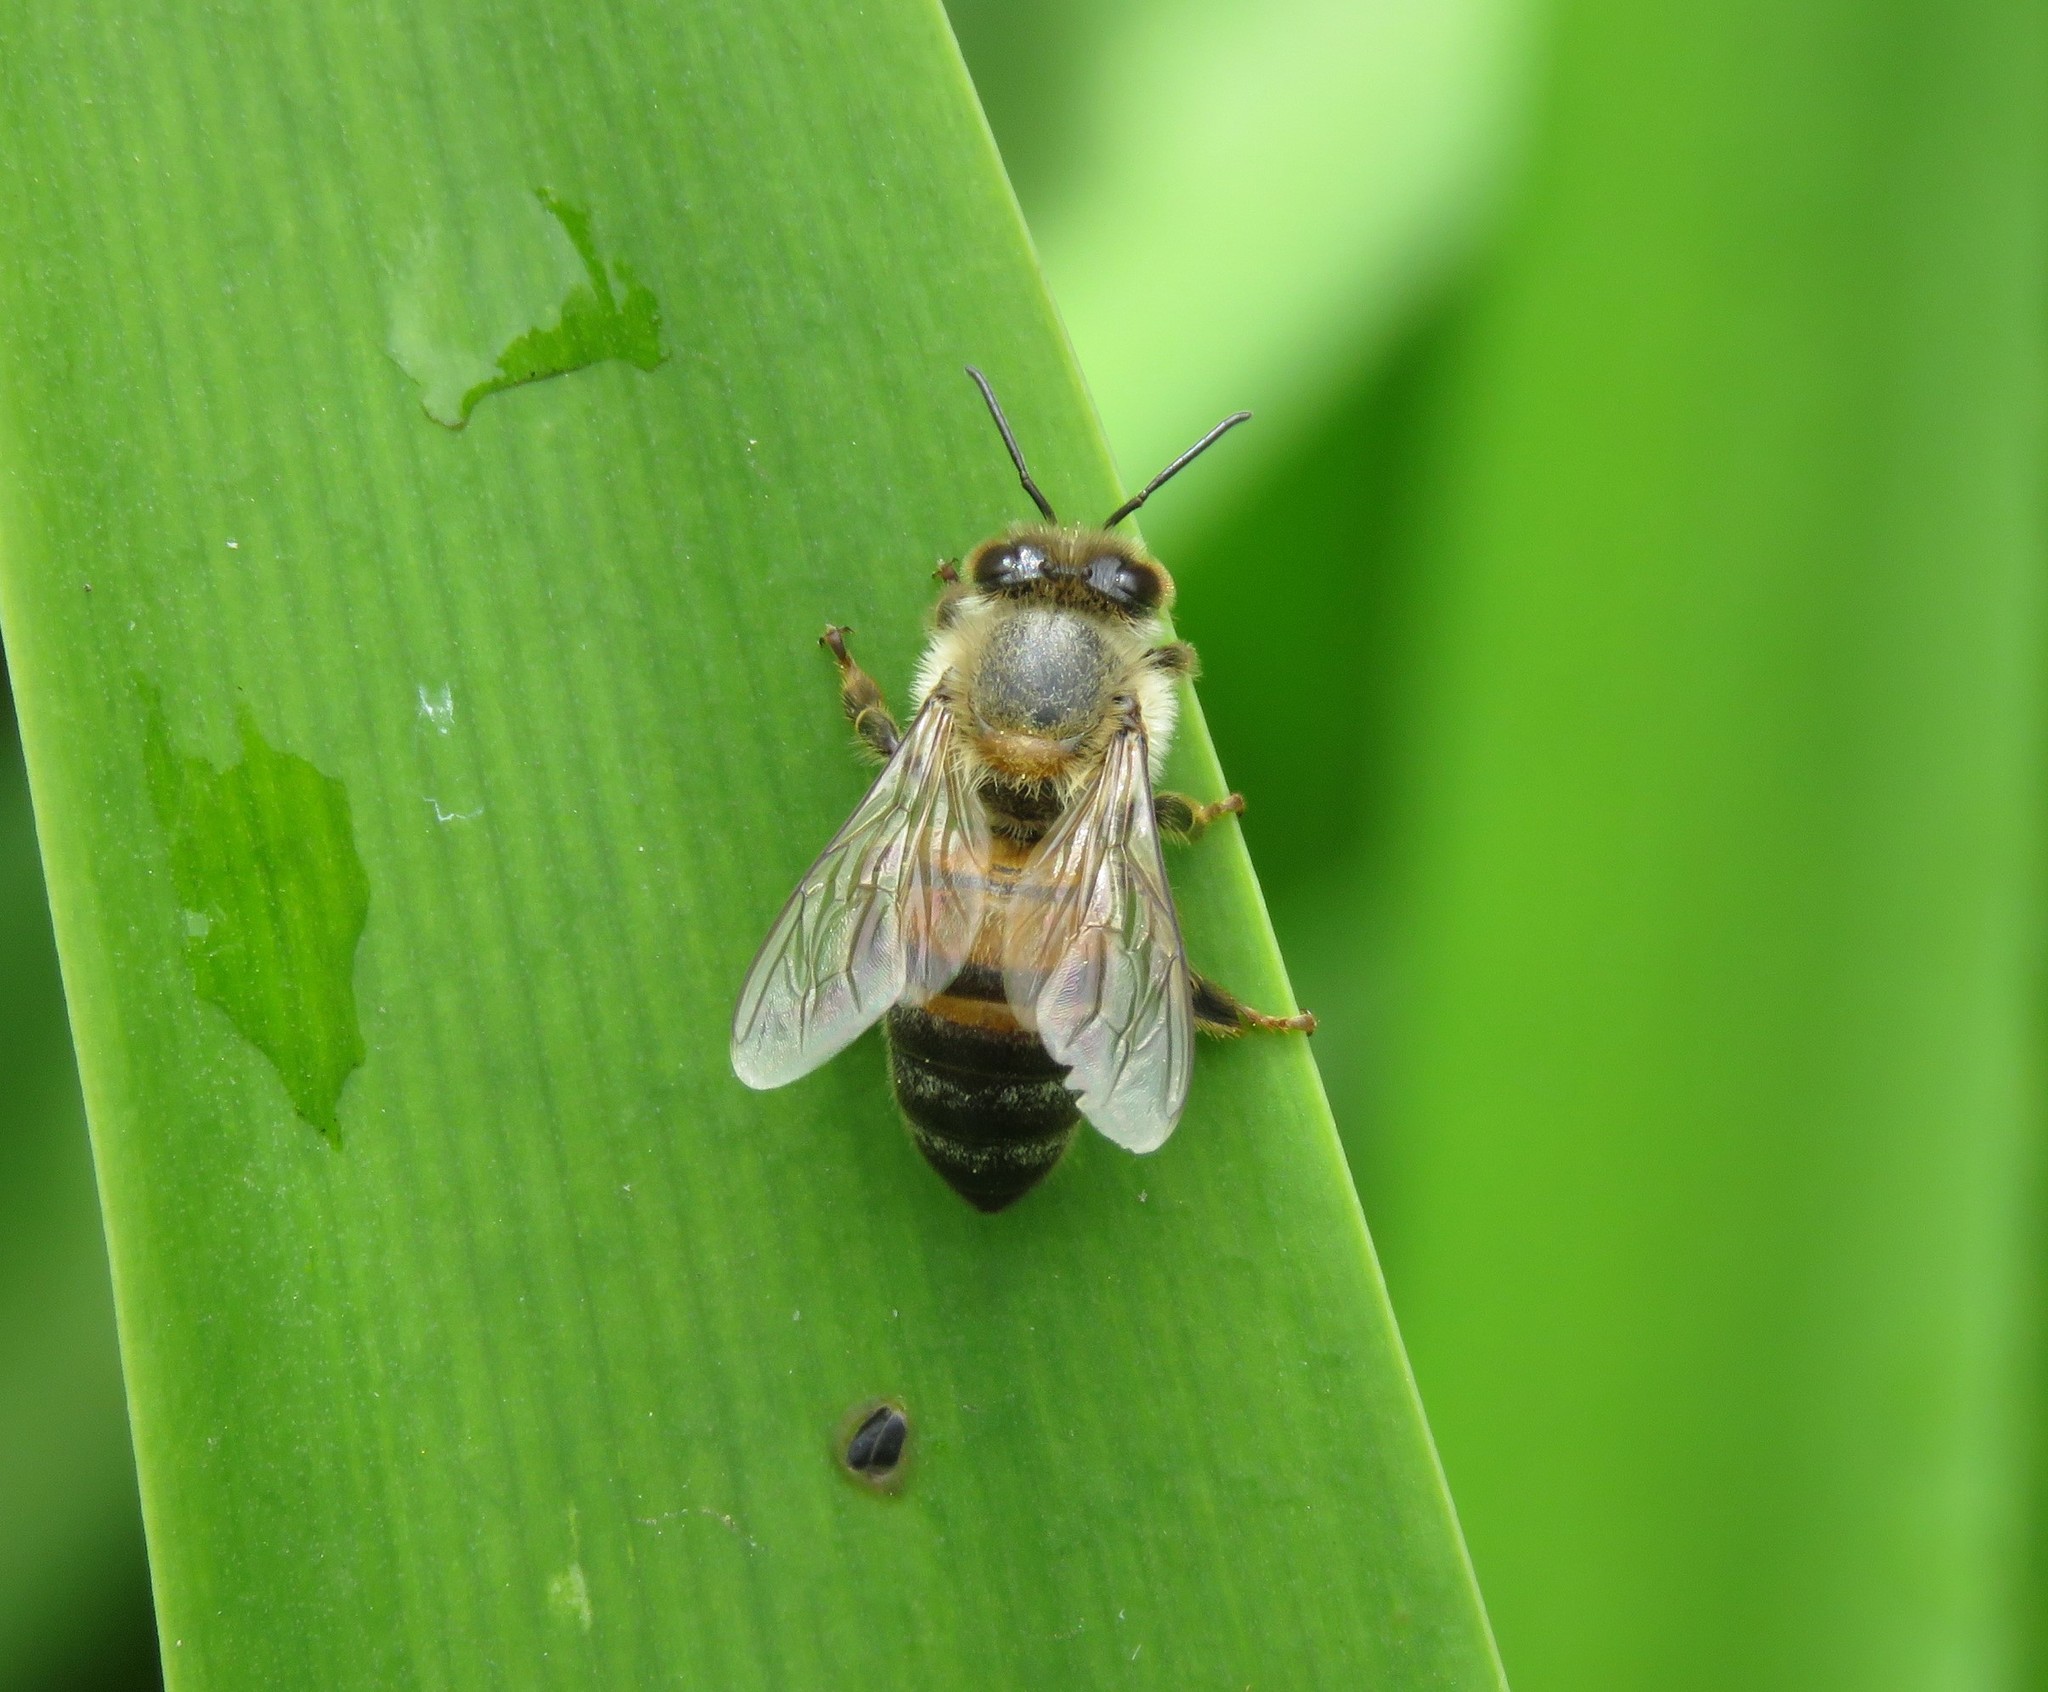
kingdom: Animalia
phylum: Arthropoda
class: Insecta
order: Hymenoptera
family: Apidae
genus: Apis
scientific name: Apis mellifera
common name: Honey bee
